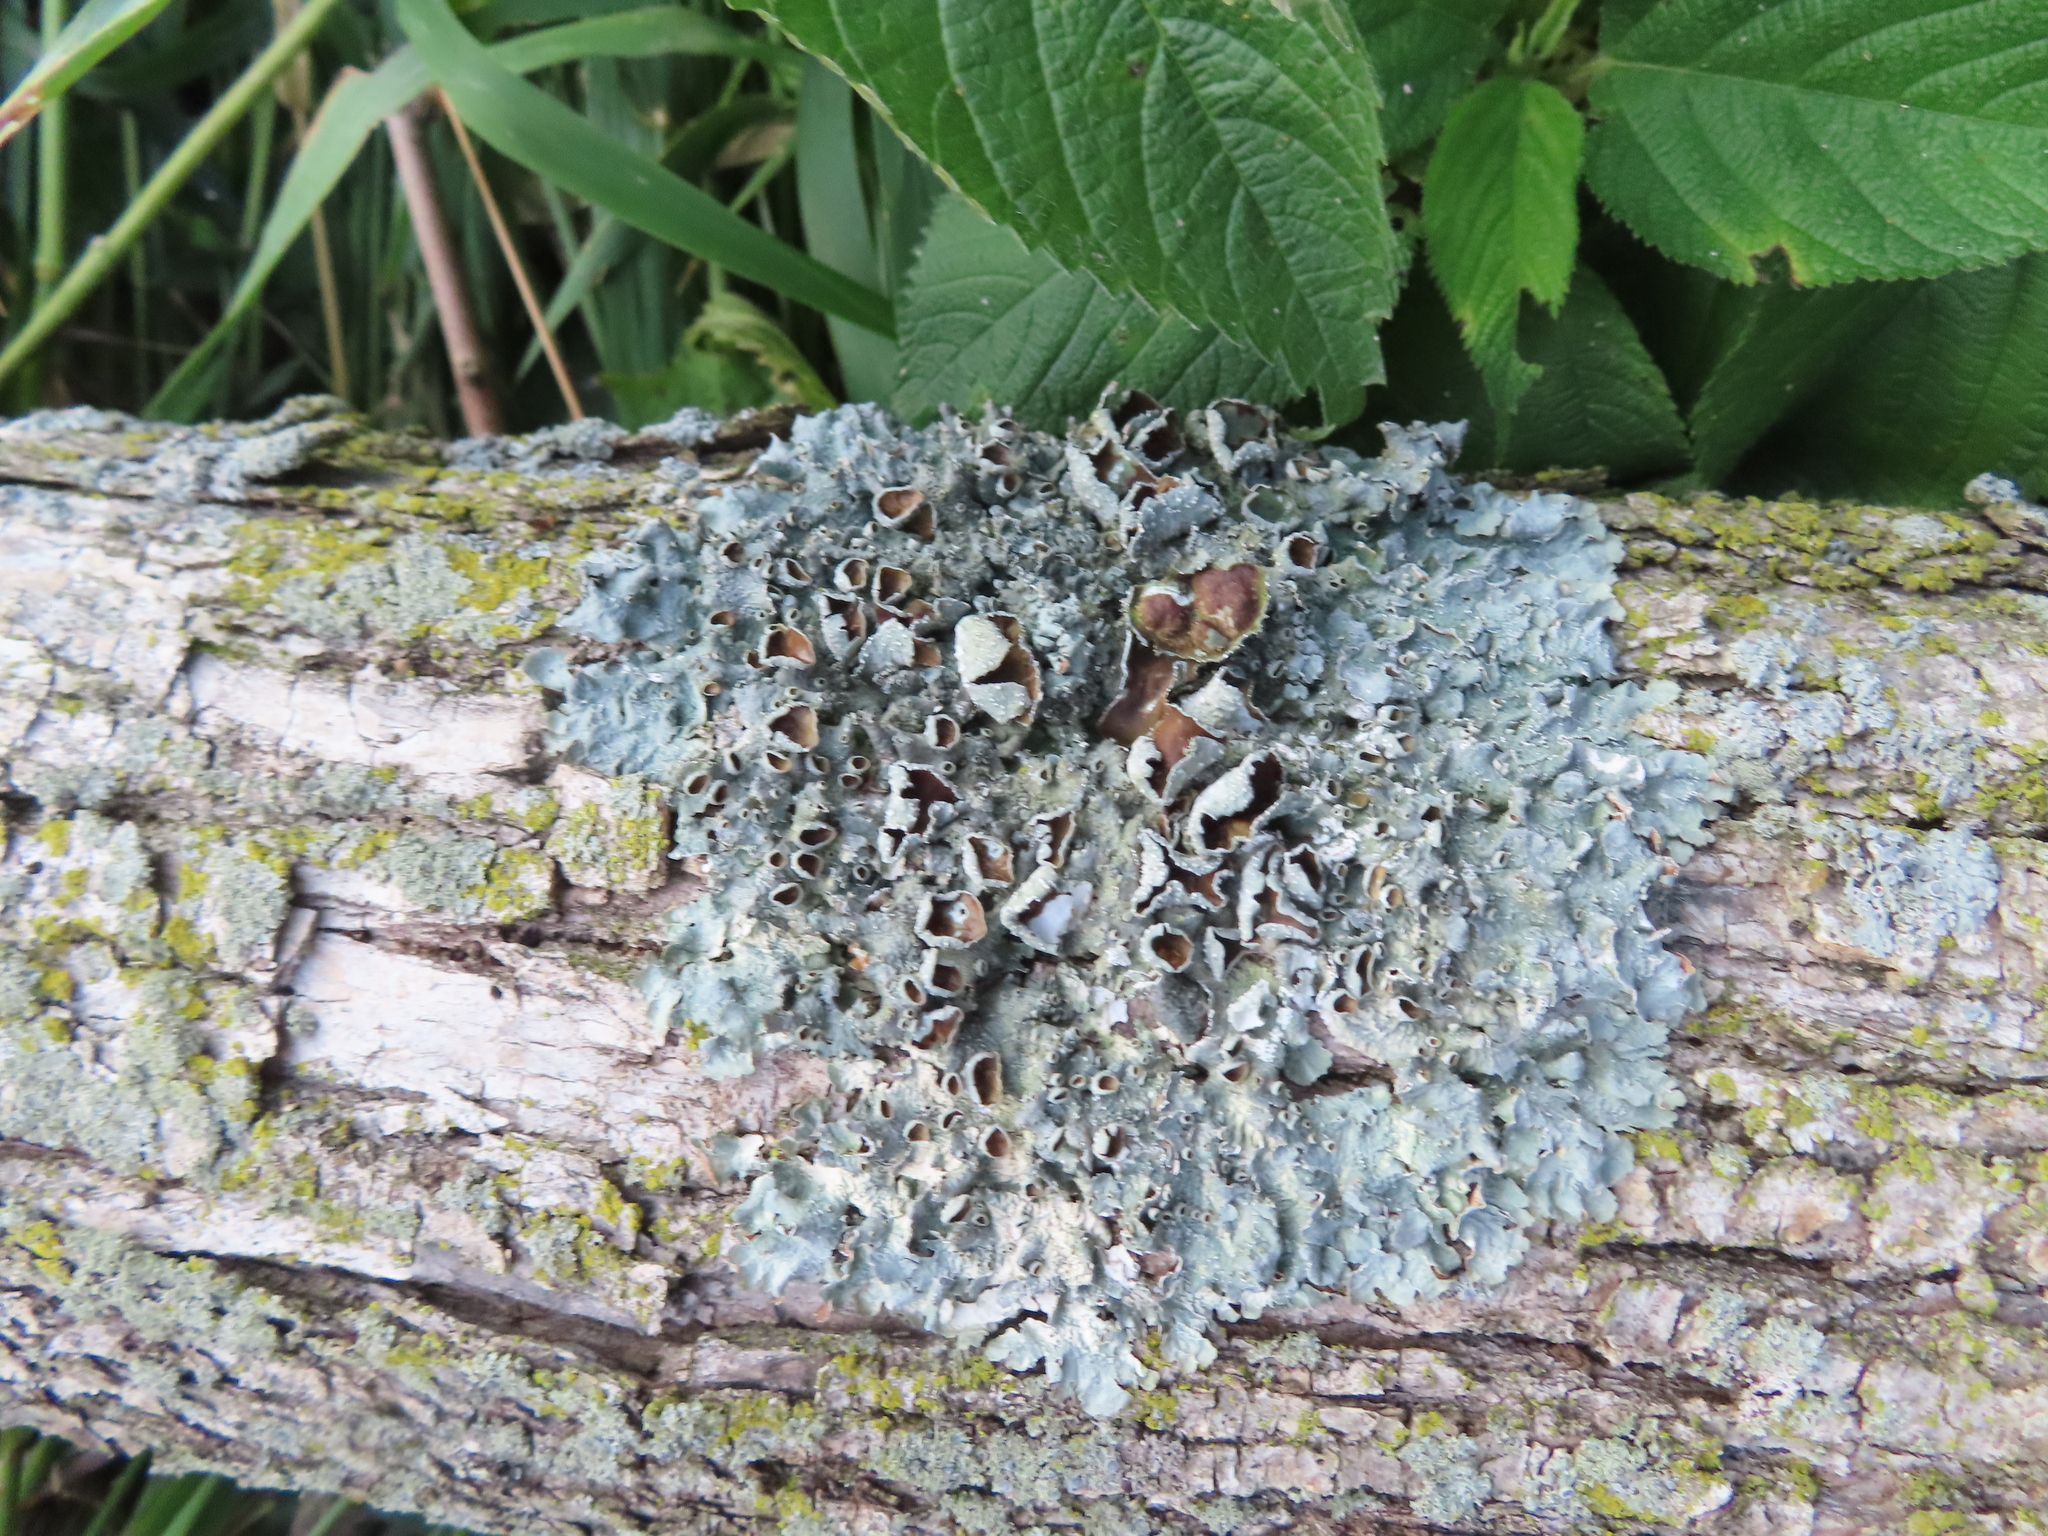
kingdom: Fungi
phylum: Ascomycota
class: Lecanoromycetes
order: Lecanorales
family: Parmeliaceae
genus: Punctelia
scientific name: Punctelia bolliana
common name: Eastern speckled shield lichen
